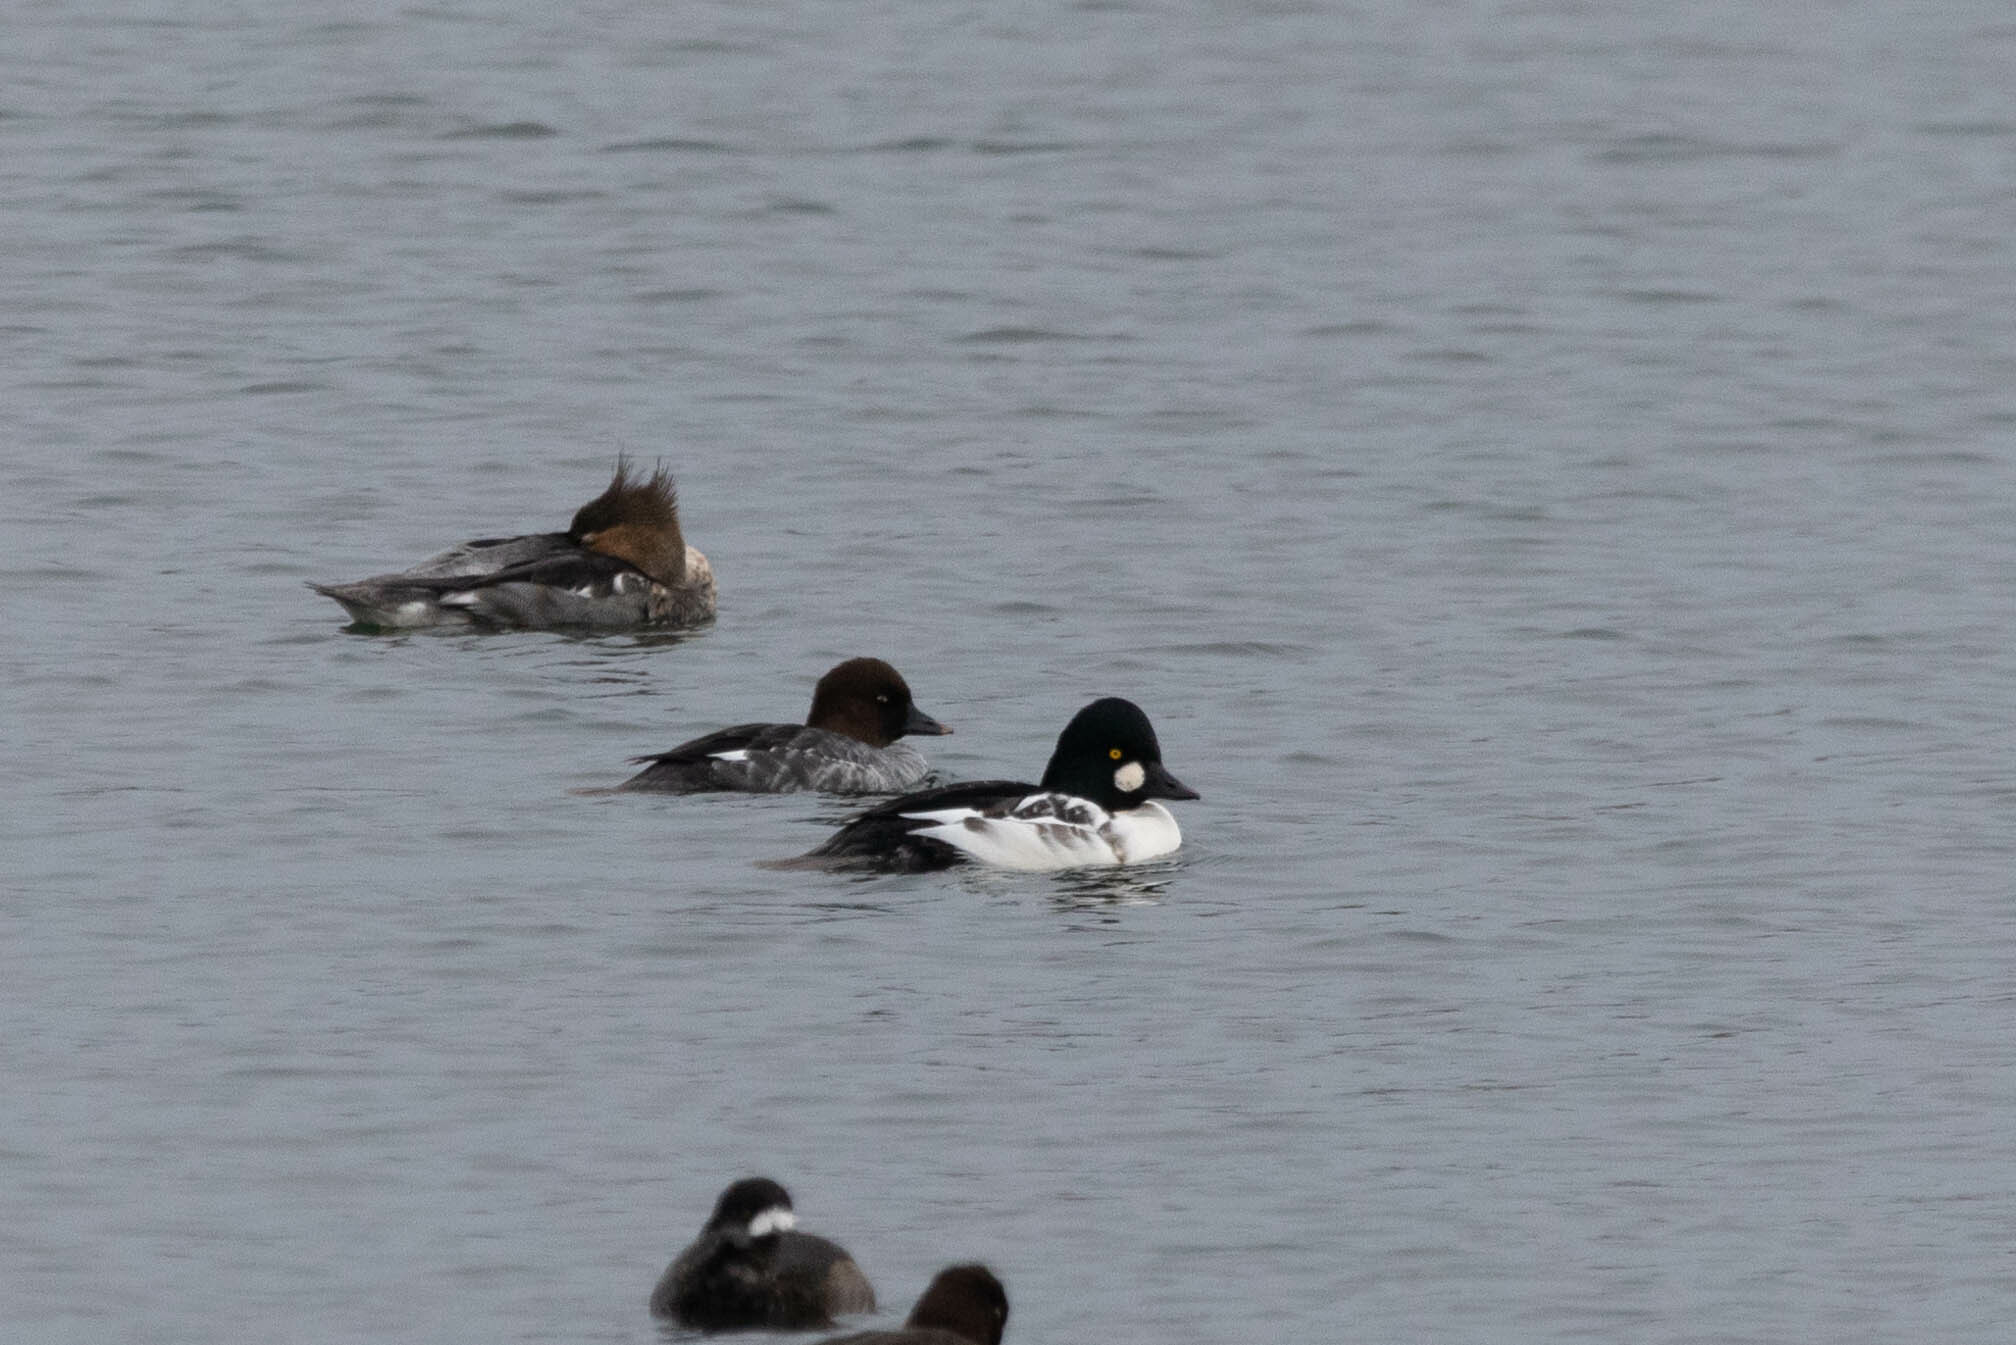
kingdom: Animalia
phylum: Chordata
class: Aves
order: Anseriformes
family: Anatidae
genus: Bucephala
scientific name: Bucephala clangula
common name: Common goldeneye
